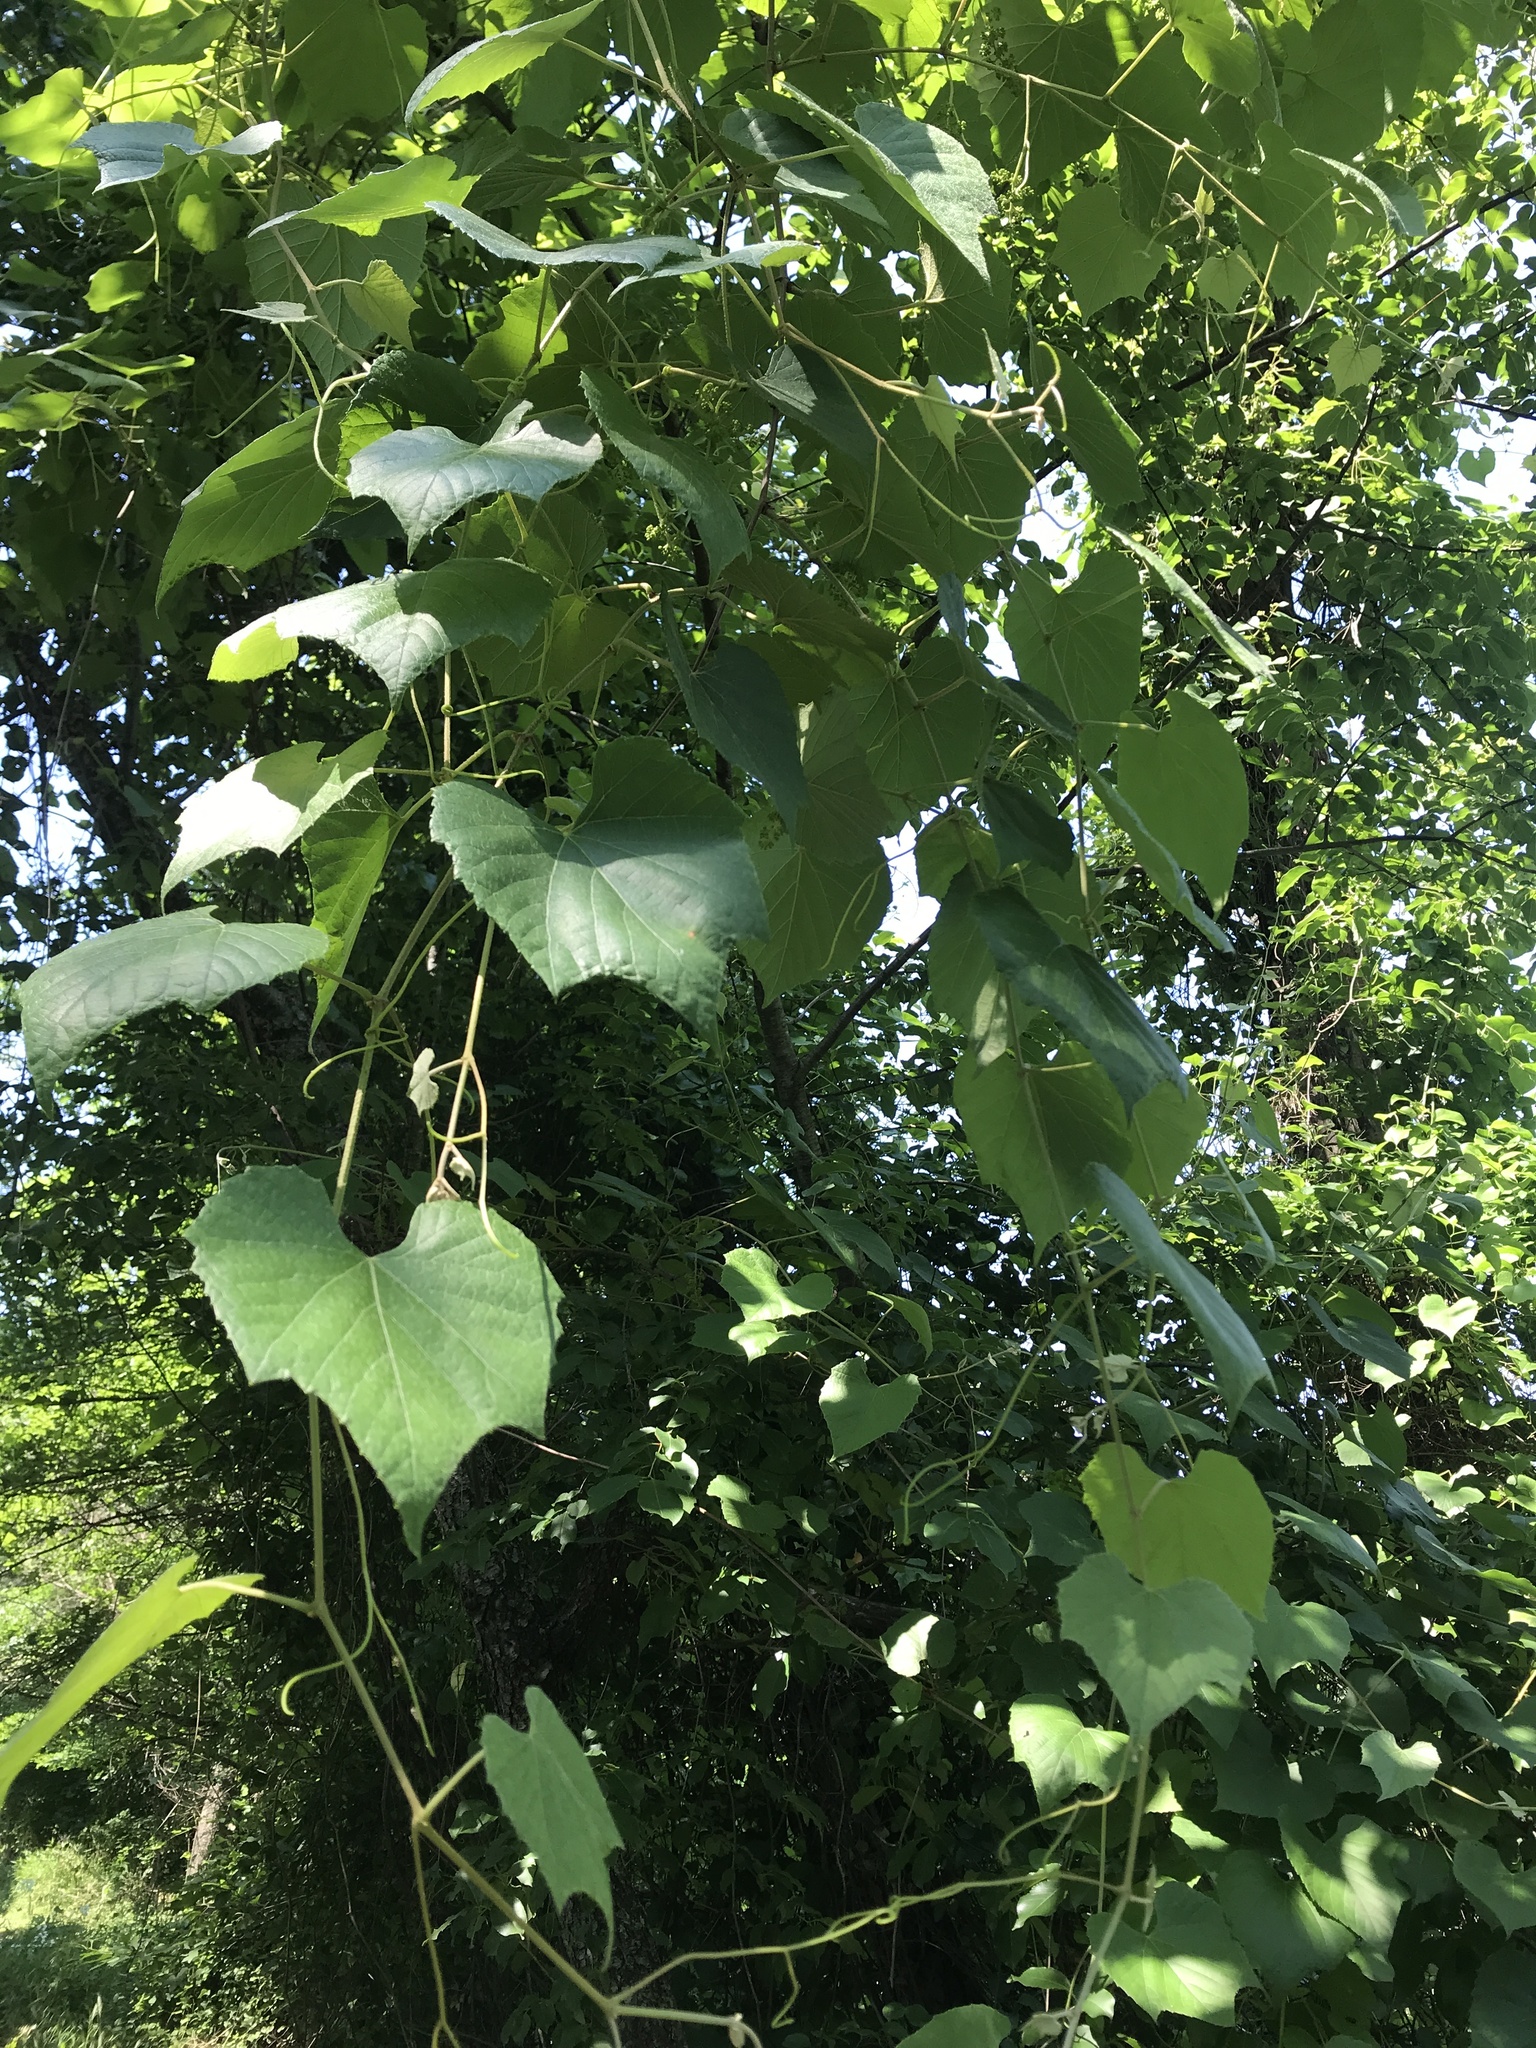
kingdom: Plantae
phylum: Tracheophyta
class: Magnoliopsida
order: Vitales
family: Vitaceae
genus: Vitis
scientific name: Vitis cinerea
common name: Ashy grape
